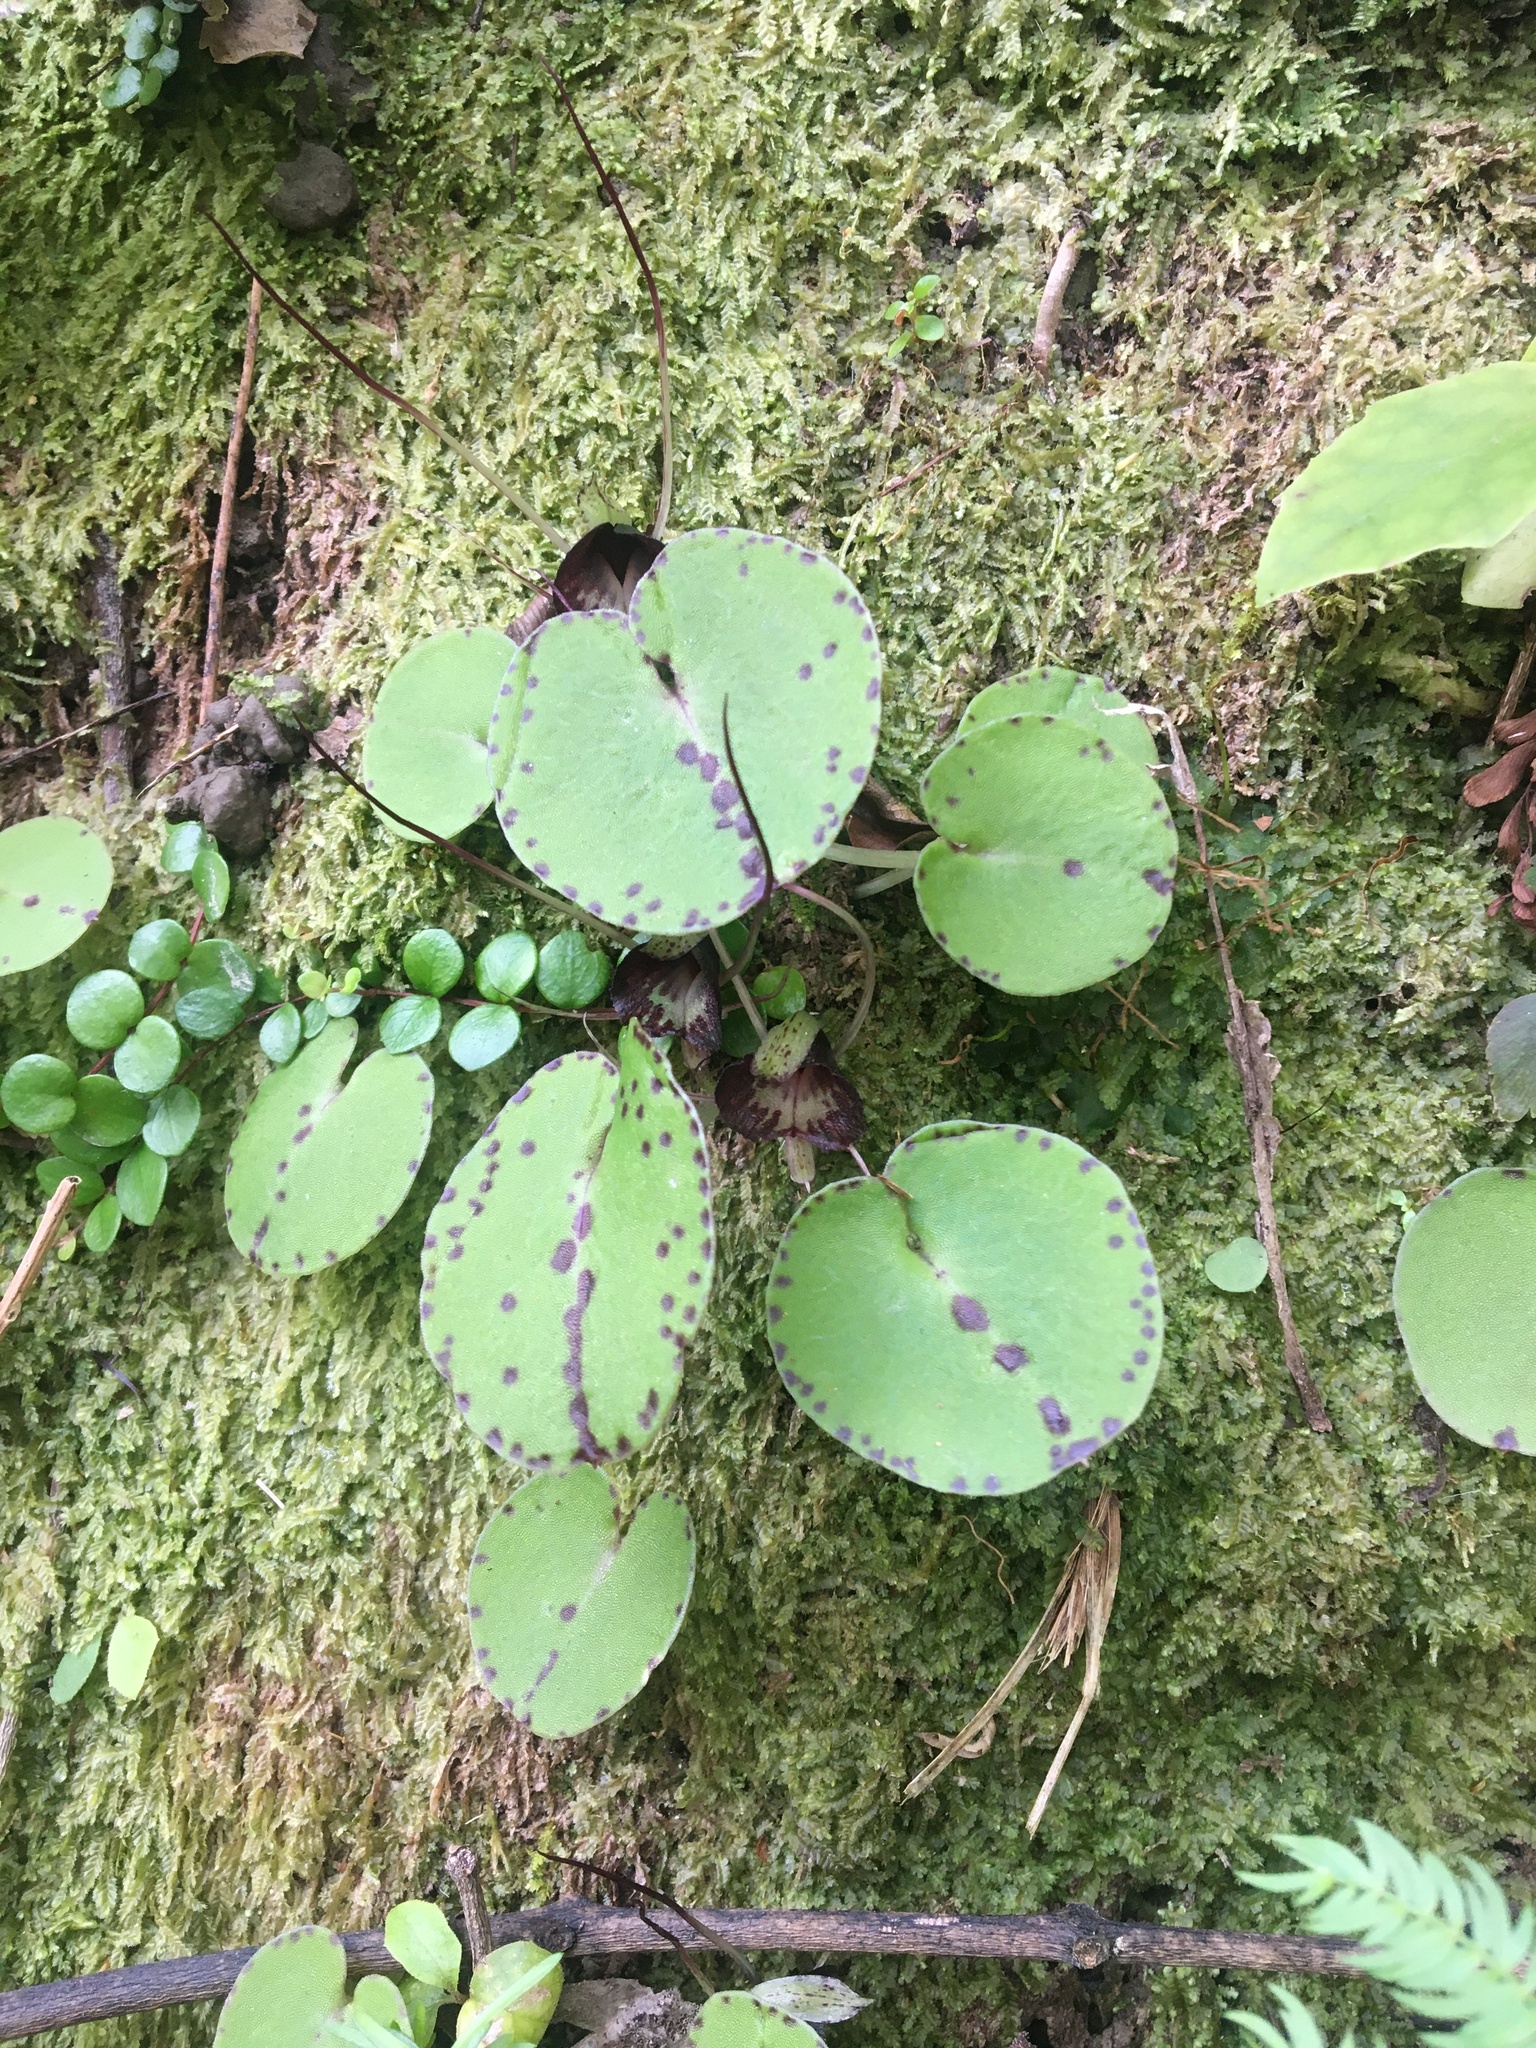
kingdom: Plantae
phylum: Tracheophyta
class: Liliopsida
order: Asparagales
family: Orchidaceae
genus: Corybas
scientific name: Corybas macranthus
